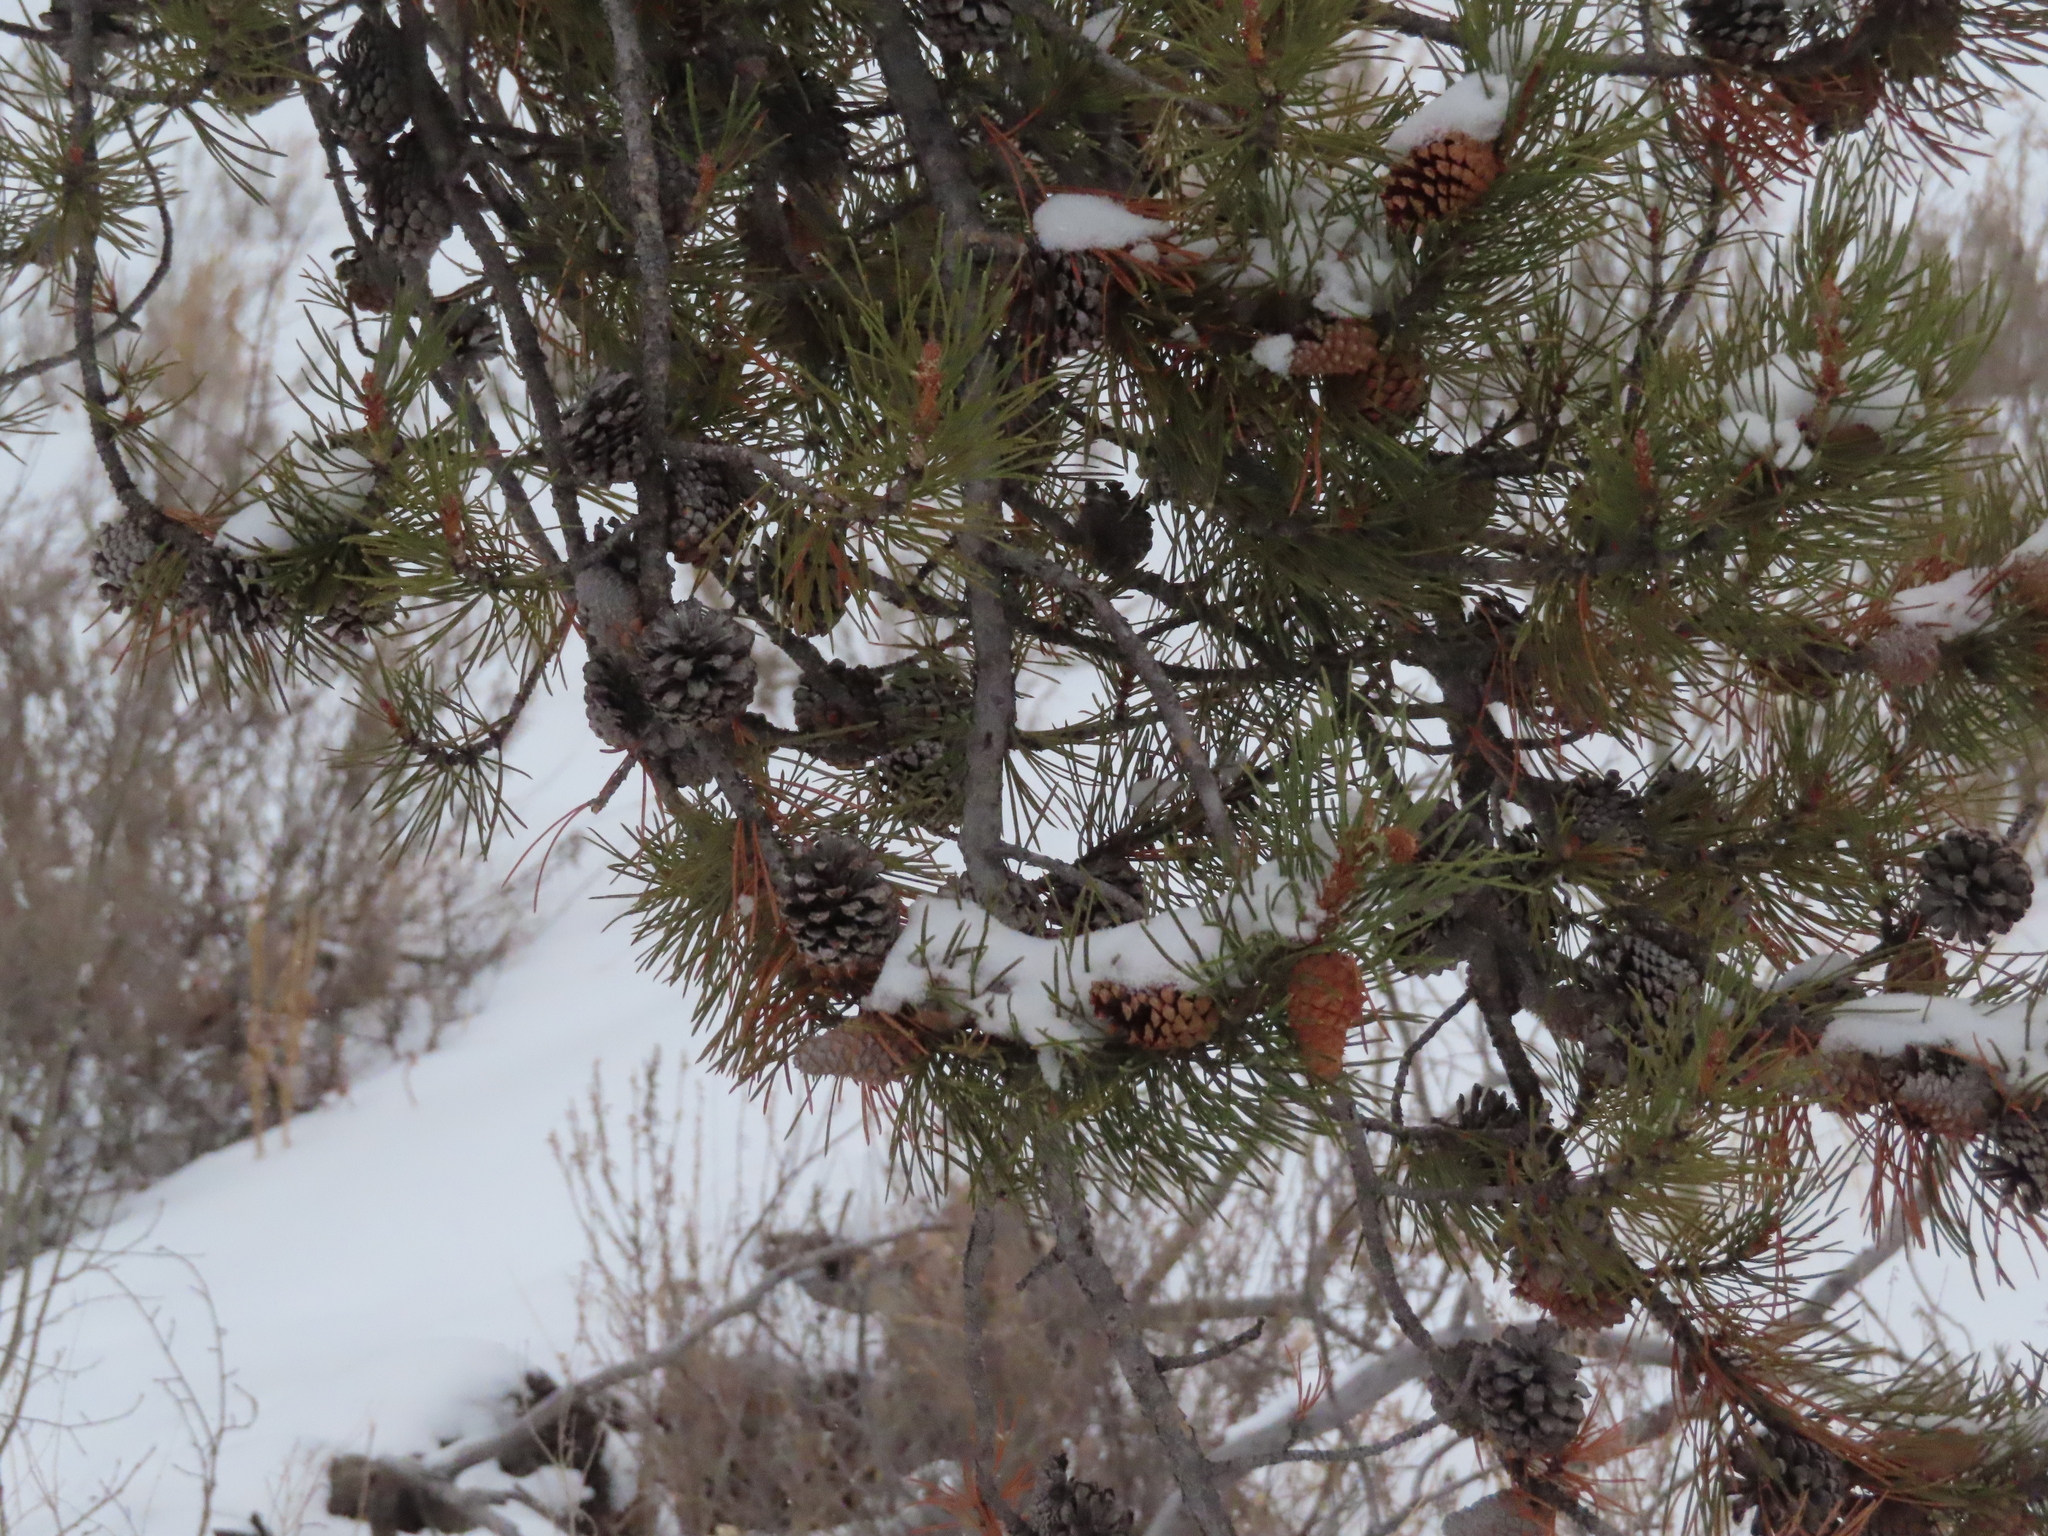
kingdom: Plantae
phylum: Tracheophyta
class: Pinopsida
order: Pinales
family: Pinaceae
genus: Pinus
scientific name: Pinus contorta
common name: Lodgepole pine
